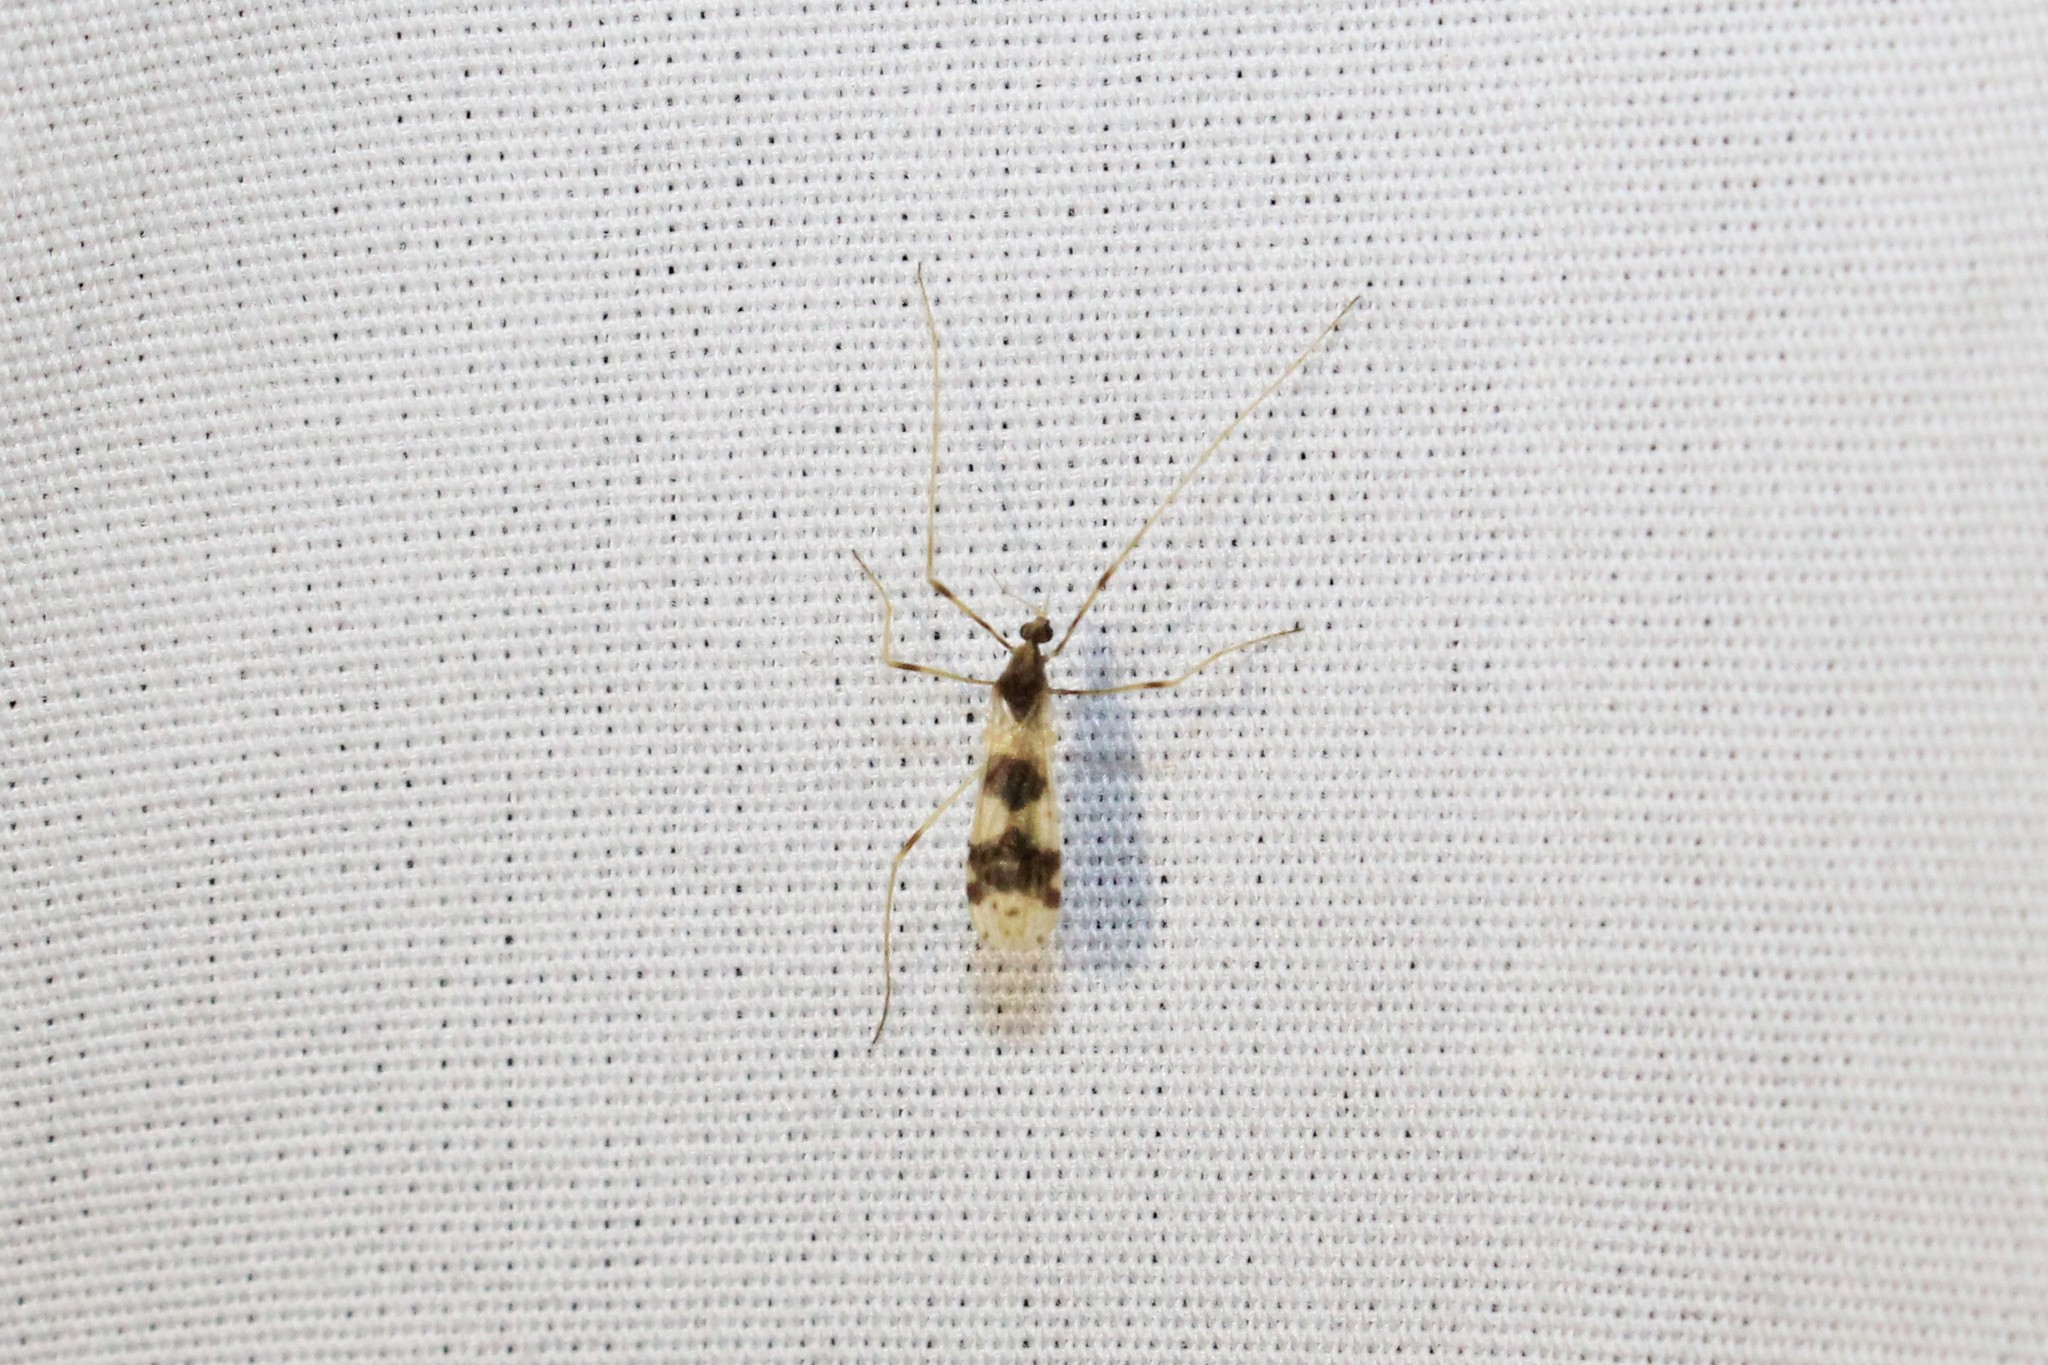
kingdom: Animalia
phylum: Arthropoda
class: Insecta
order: Diptera
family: Limoniidae
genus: Ilisia
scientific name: Ilisia venusta
